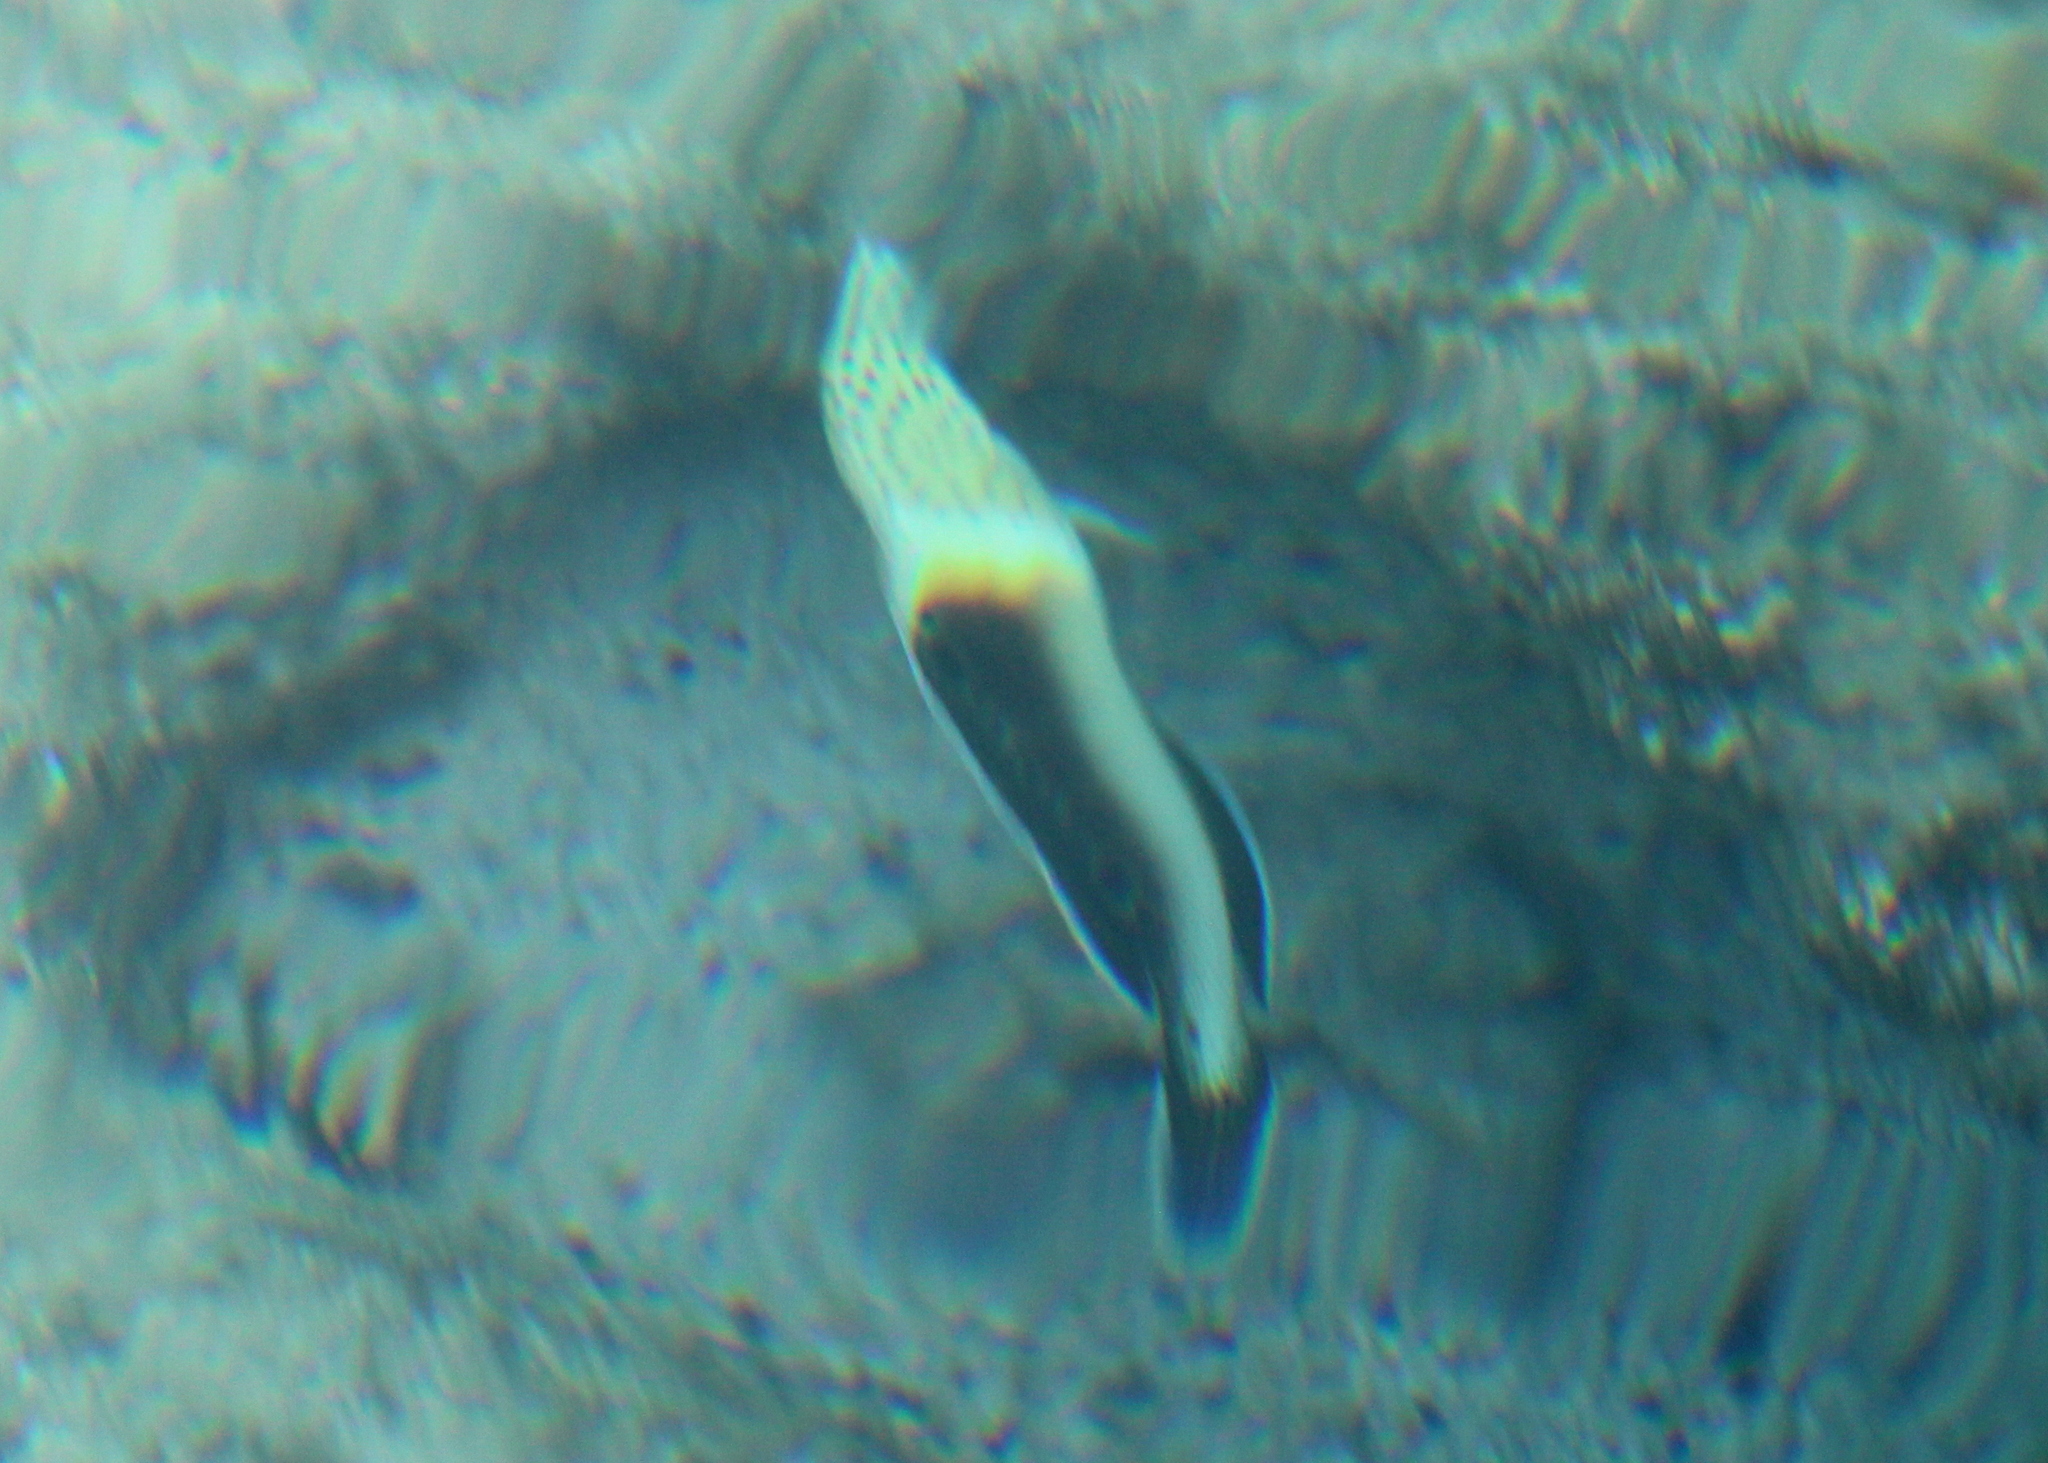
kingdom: Animalia
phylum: Chordata
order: Perciformes
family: Labridae
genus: Coris
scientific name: Coris aygula
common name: Clown coris
